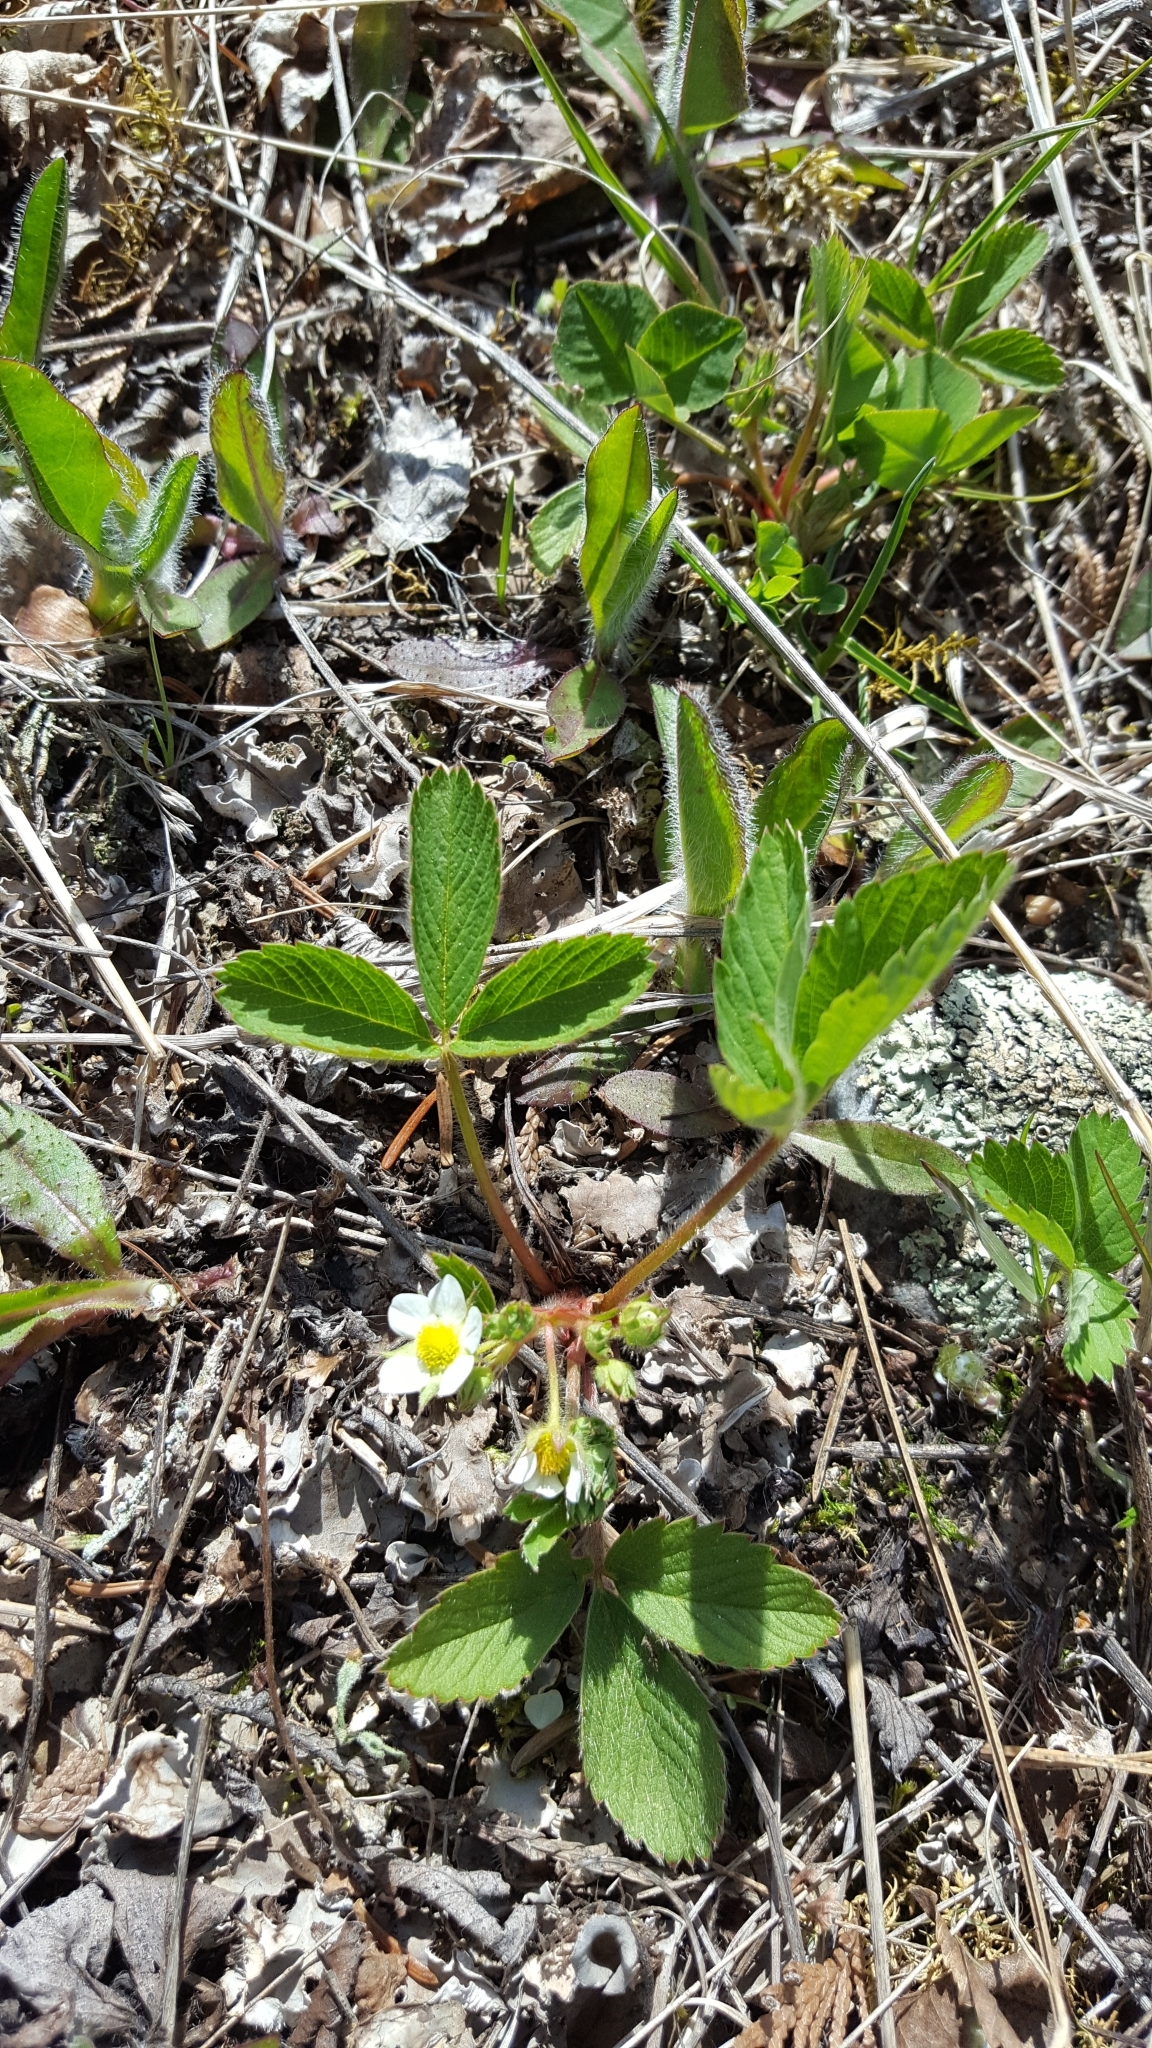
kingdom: Plantae
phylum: Tracheophyta
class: Magnoliopsida
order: Rosales
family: Rosaceae
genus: Fragaria
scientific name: Fragaria vesca
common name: Wild strawberry
